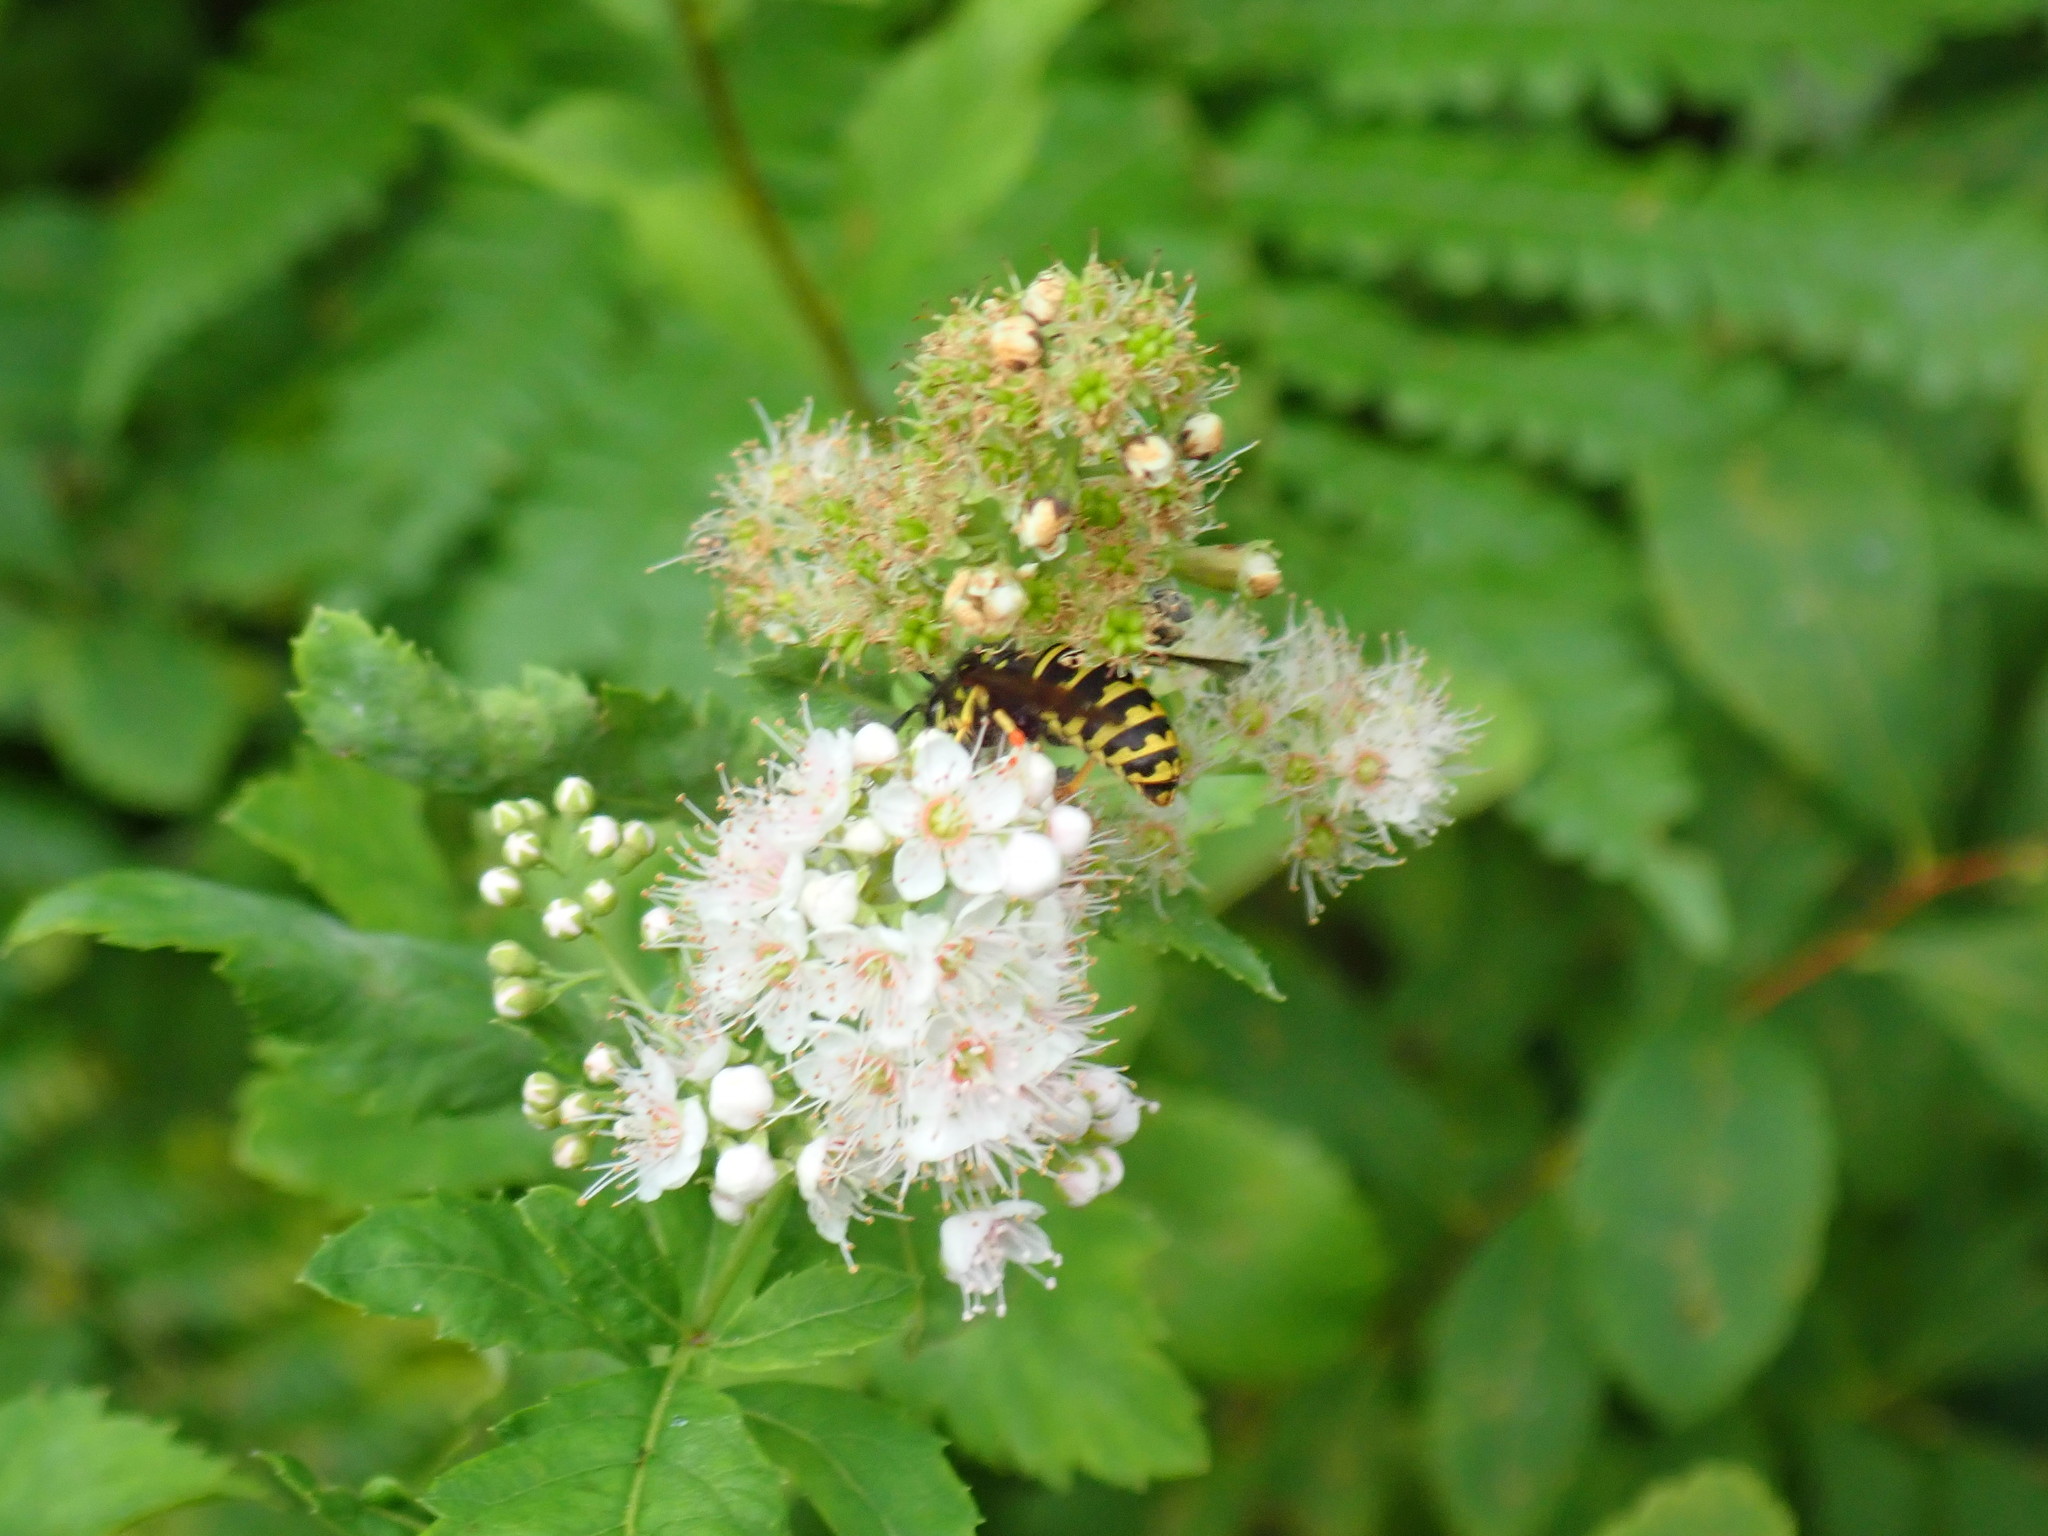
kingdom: Animalia
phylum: Arthropoda
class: Insecta
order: Hymenoptera
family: Vespidae
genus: Dolichovespula
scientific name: Dolichovespula arenaria
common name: Aerial yellowjacket
